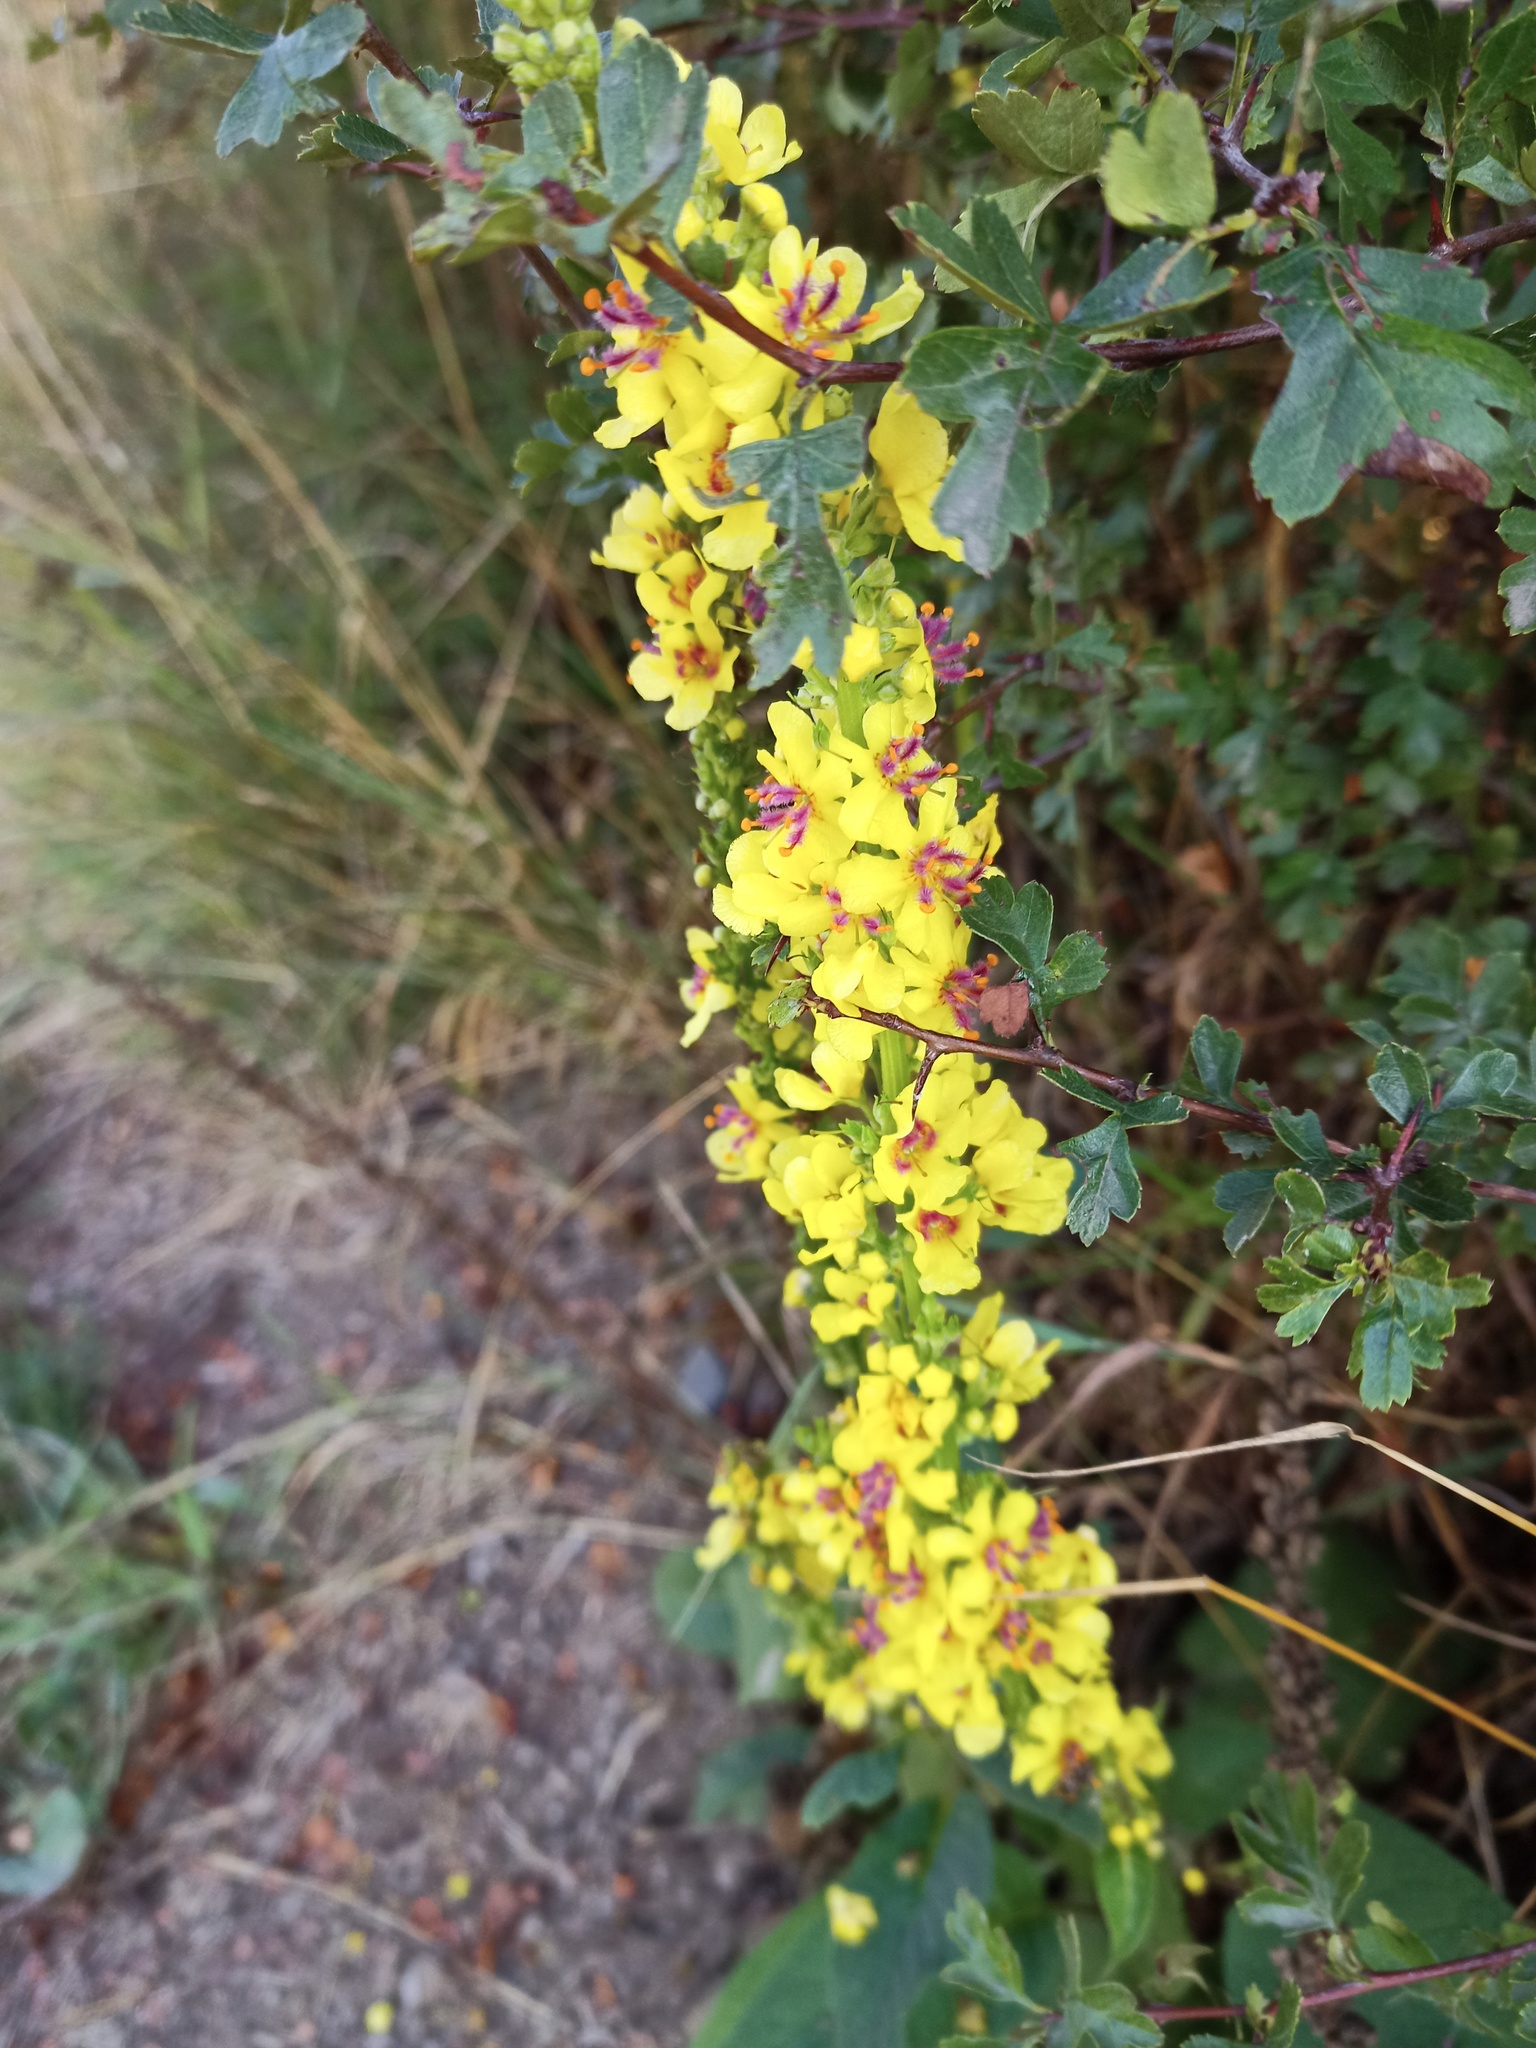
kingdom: Plantae
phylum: Tracheophyta
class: Magnoliopsida
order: Lamiales
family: Scrophulariaceae
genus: Verbascum
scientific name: Verbascum nigrum
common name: Dark mullein
